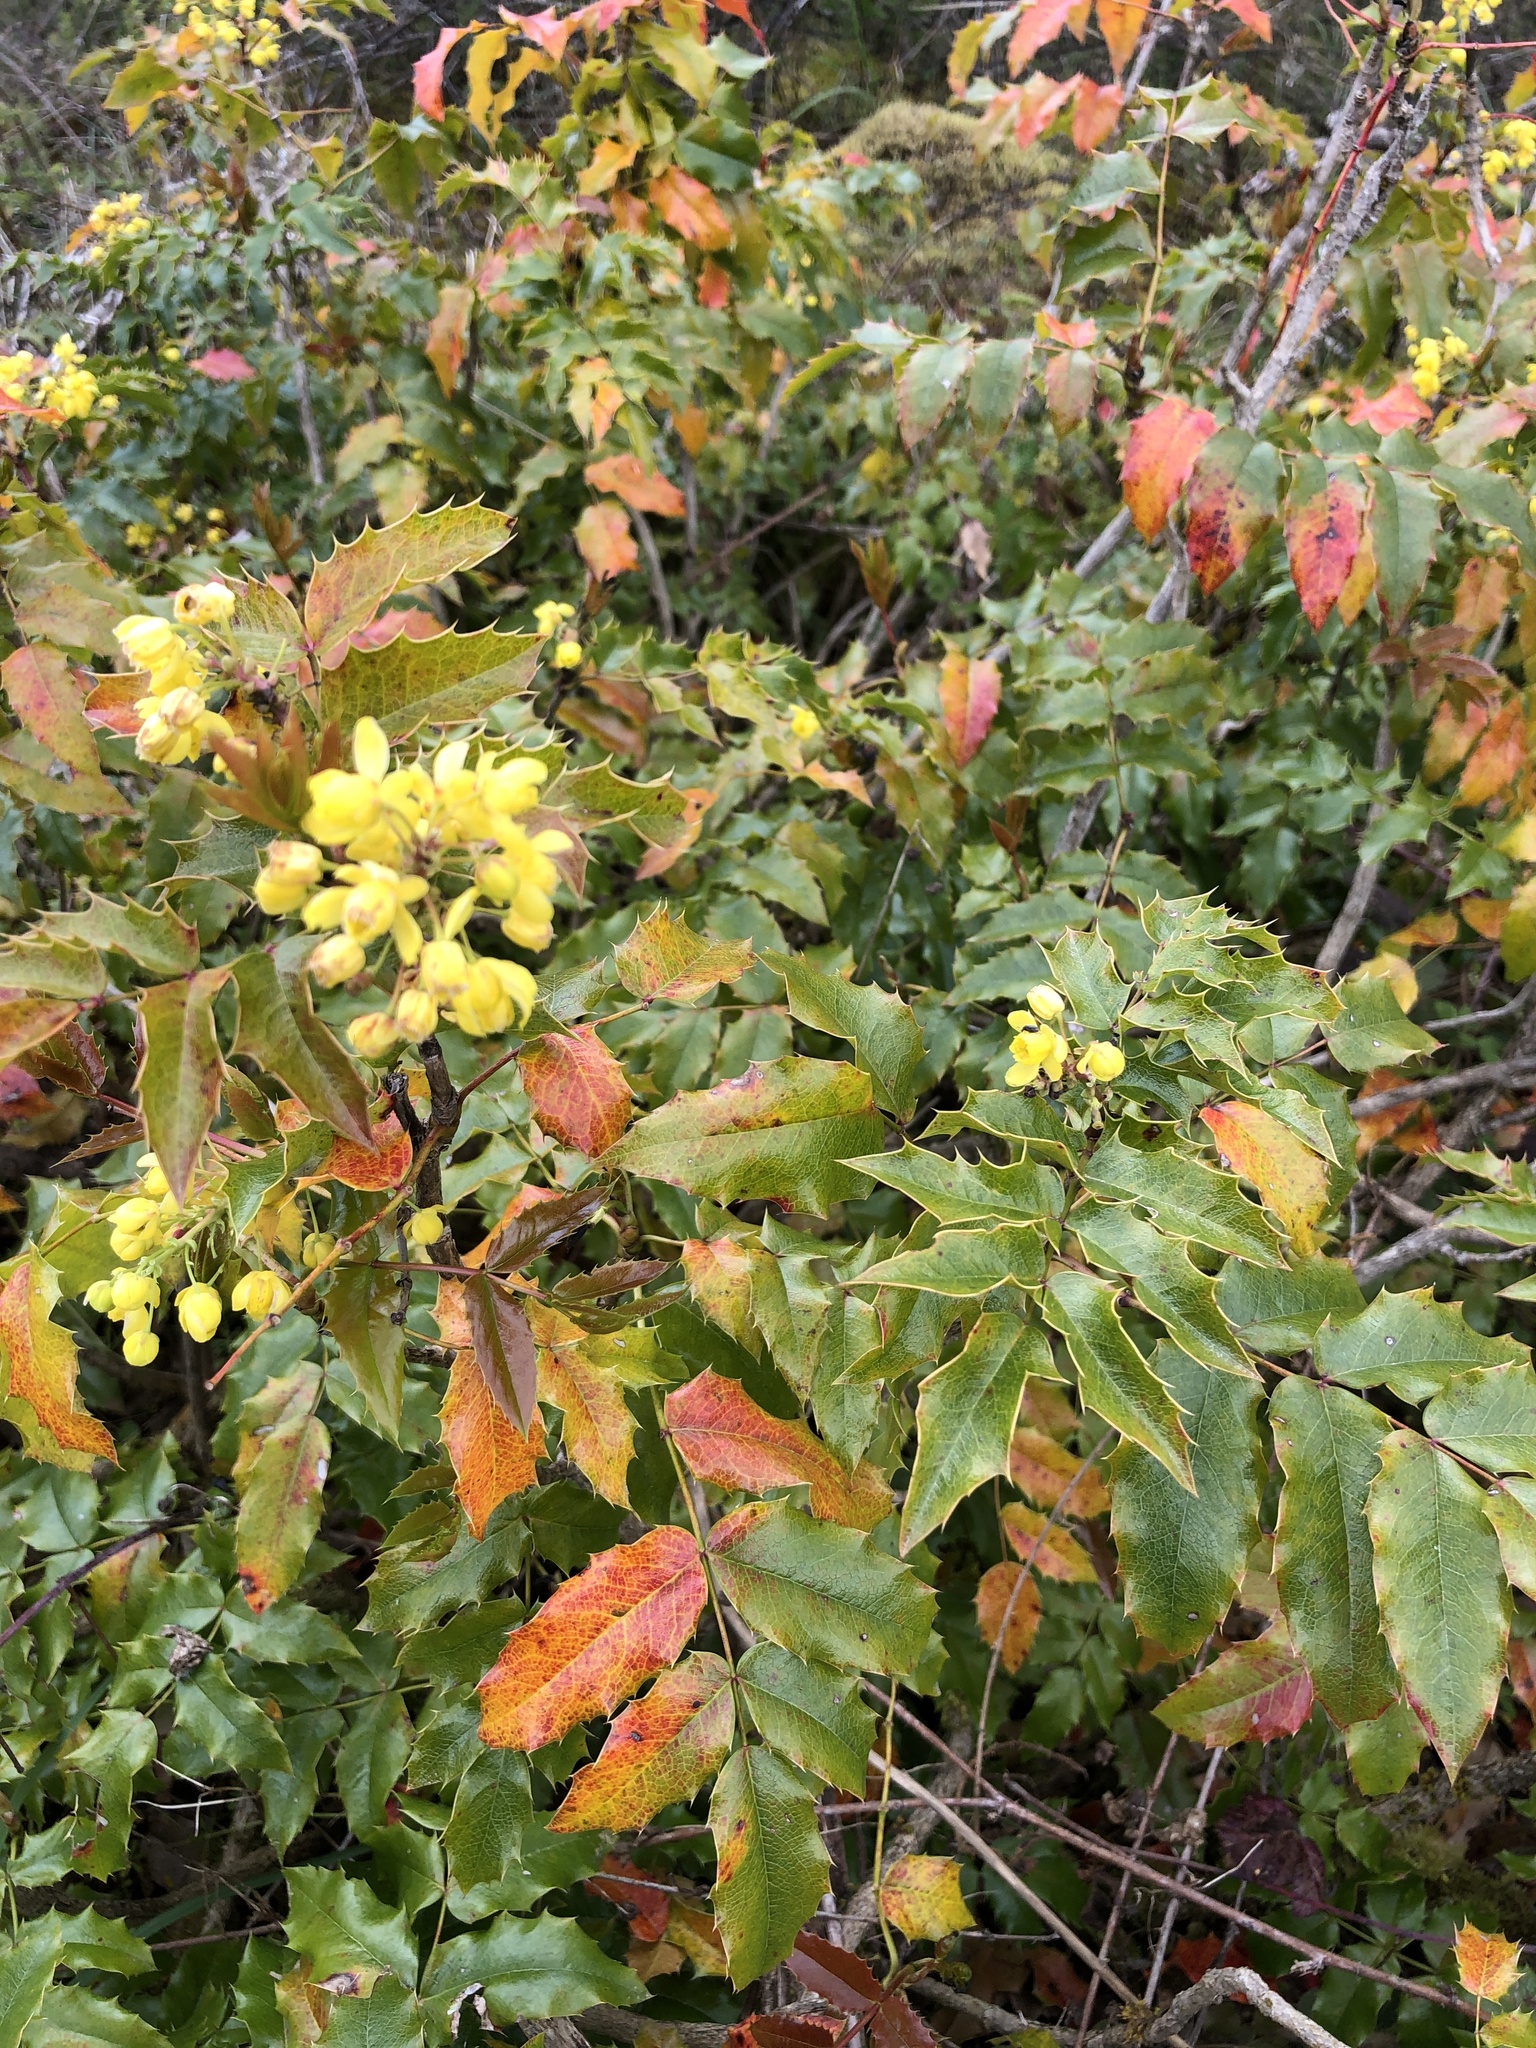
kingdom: Plantae
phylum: Tracheophyta
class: Magnoliopsida
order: Ranunculales
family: Berberidaceae
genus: Mahonia
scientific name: Mahonia aquifolium
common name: Oregon-grape
